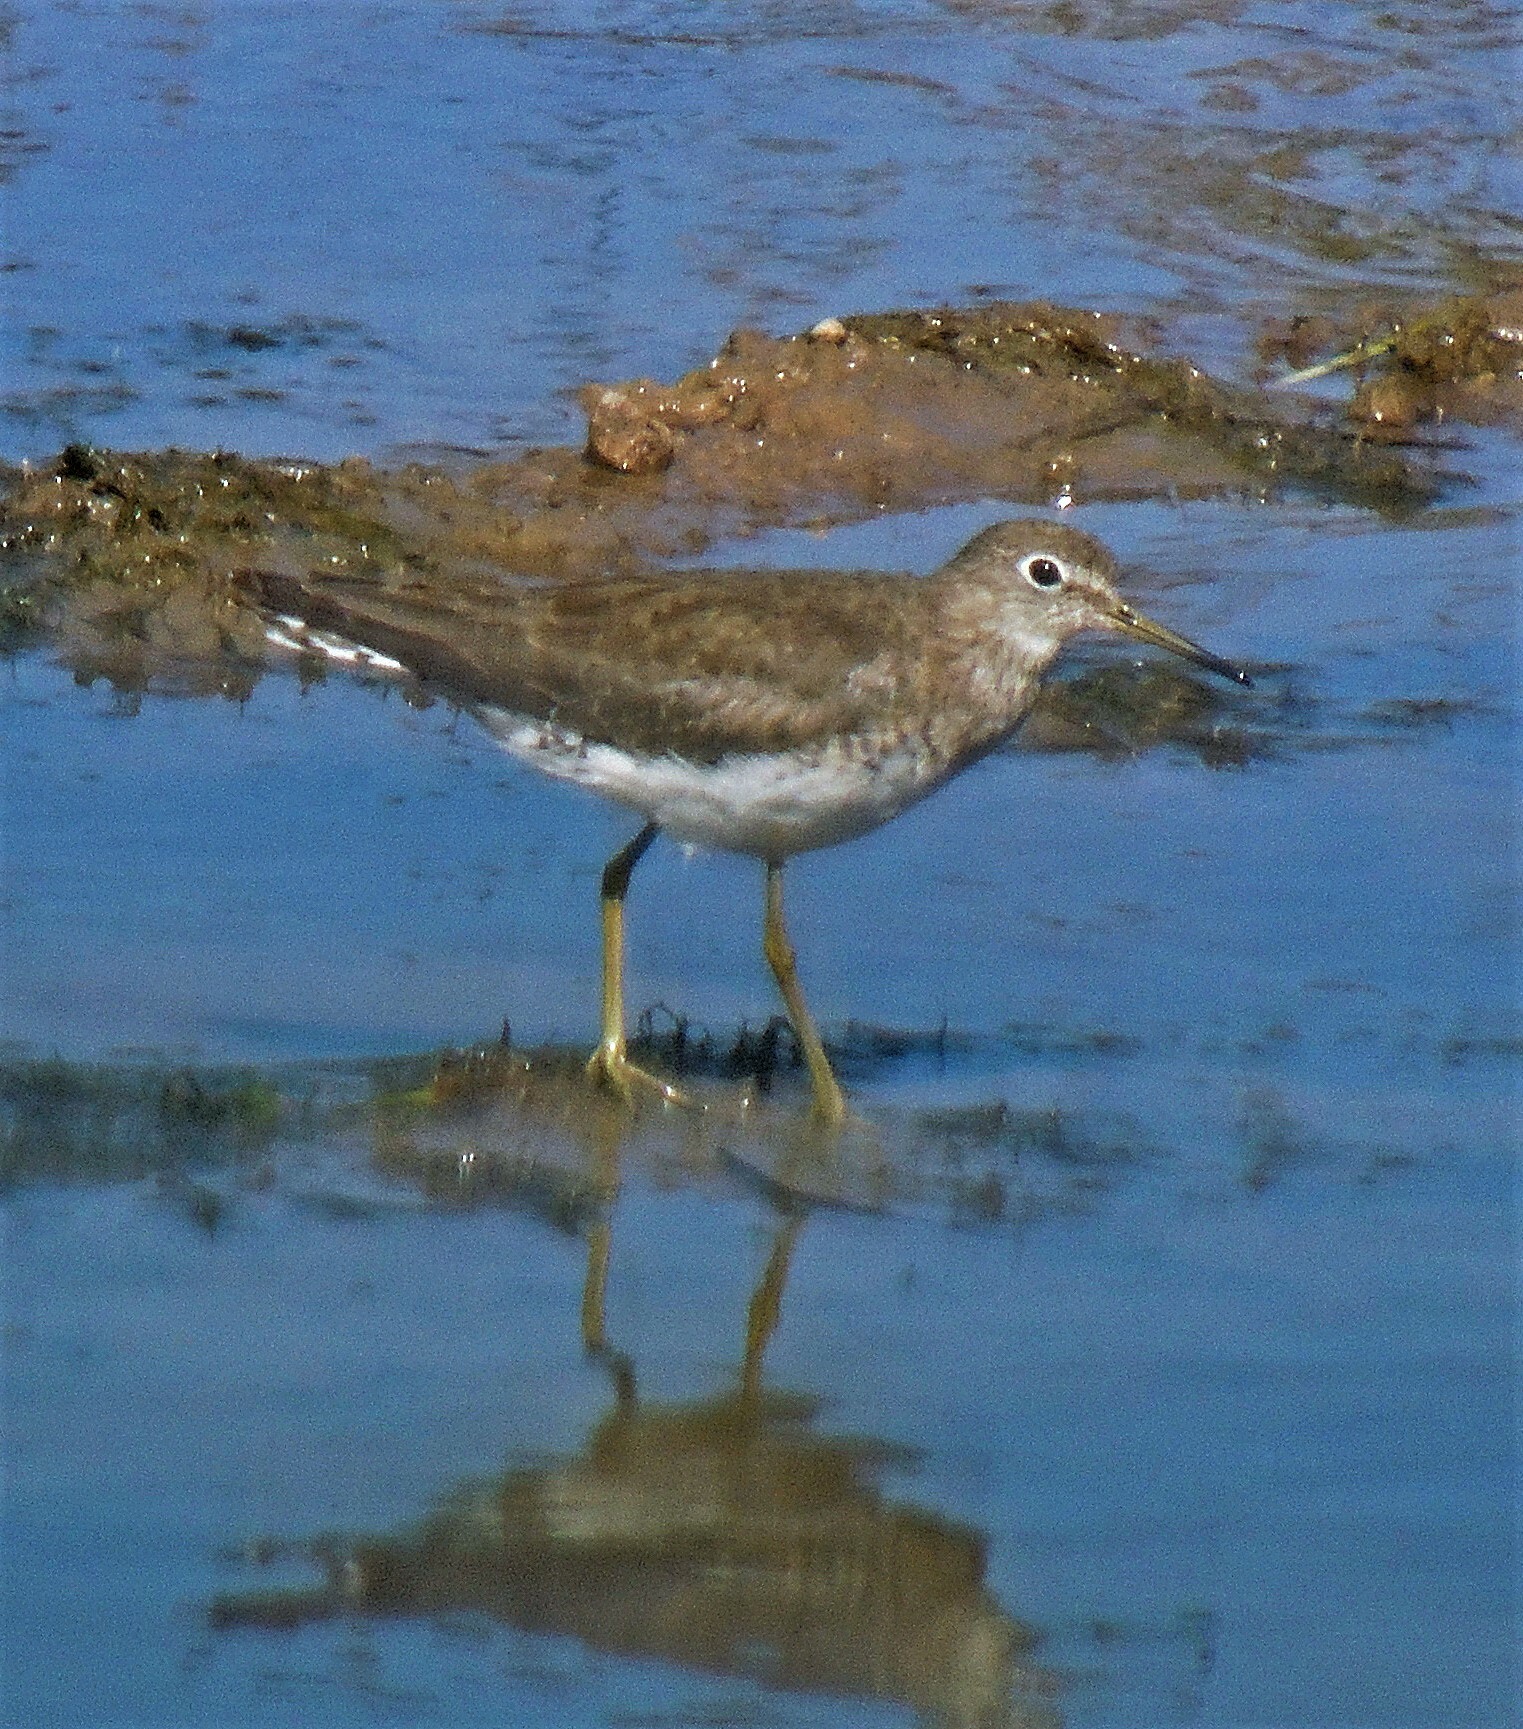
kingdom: Animalia
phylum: Chordata
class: Aves
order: Charadriiformes
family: Scolopacidae
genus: Tringa
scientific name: Tringa solitaria
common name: Solitary sandpiper
